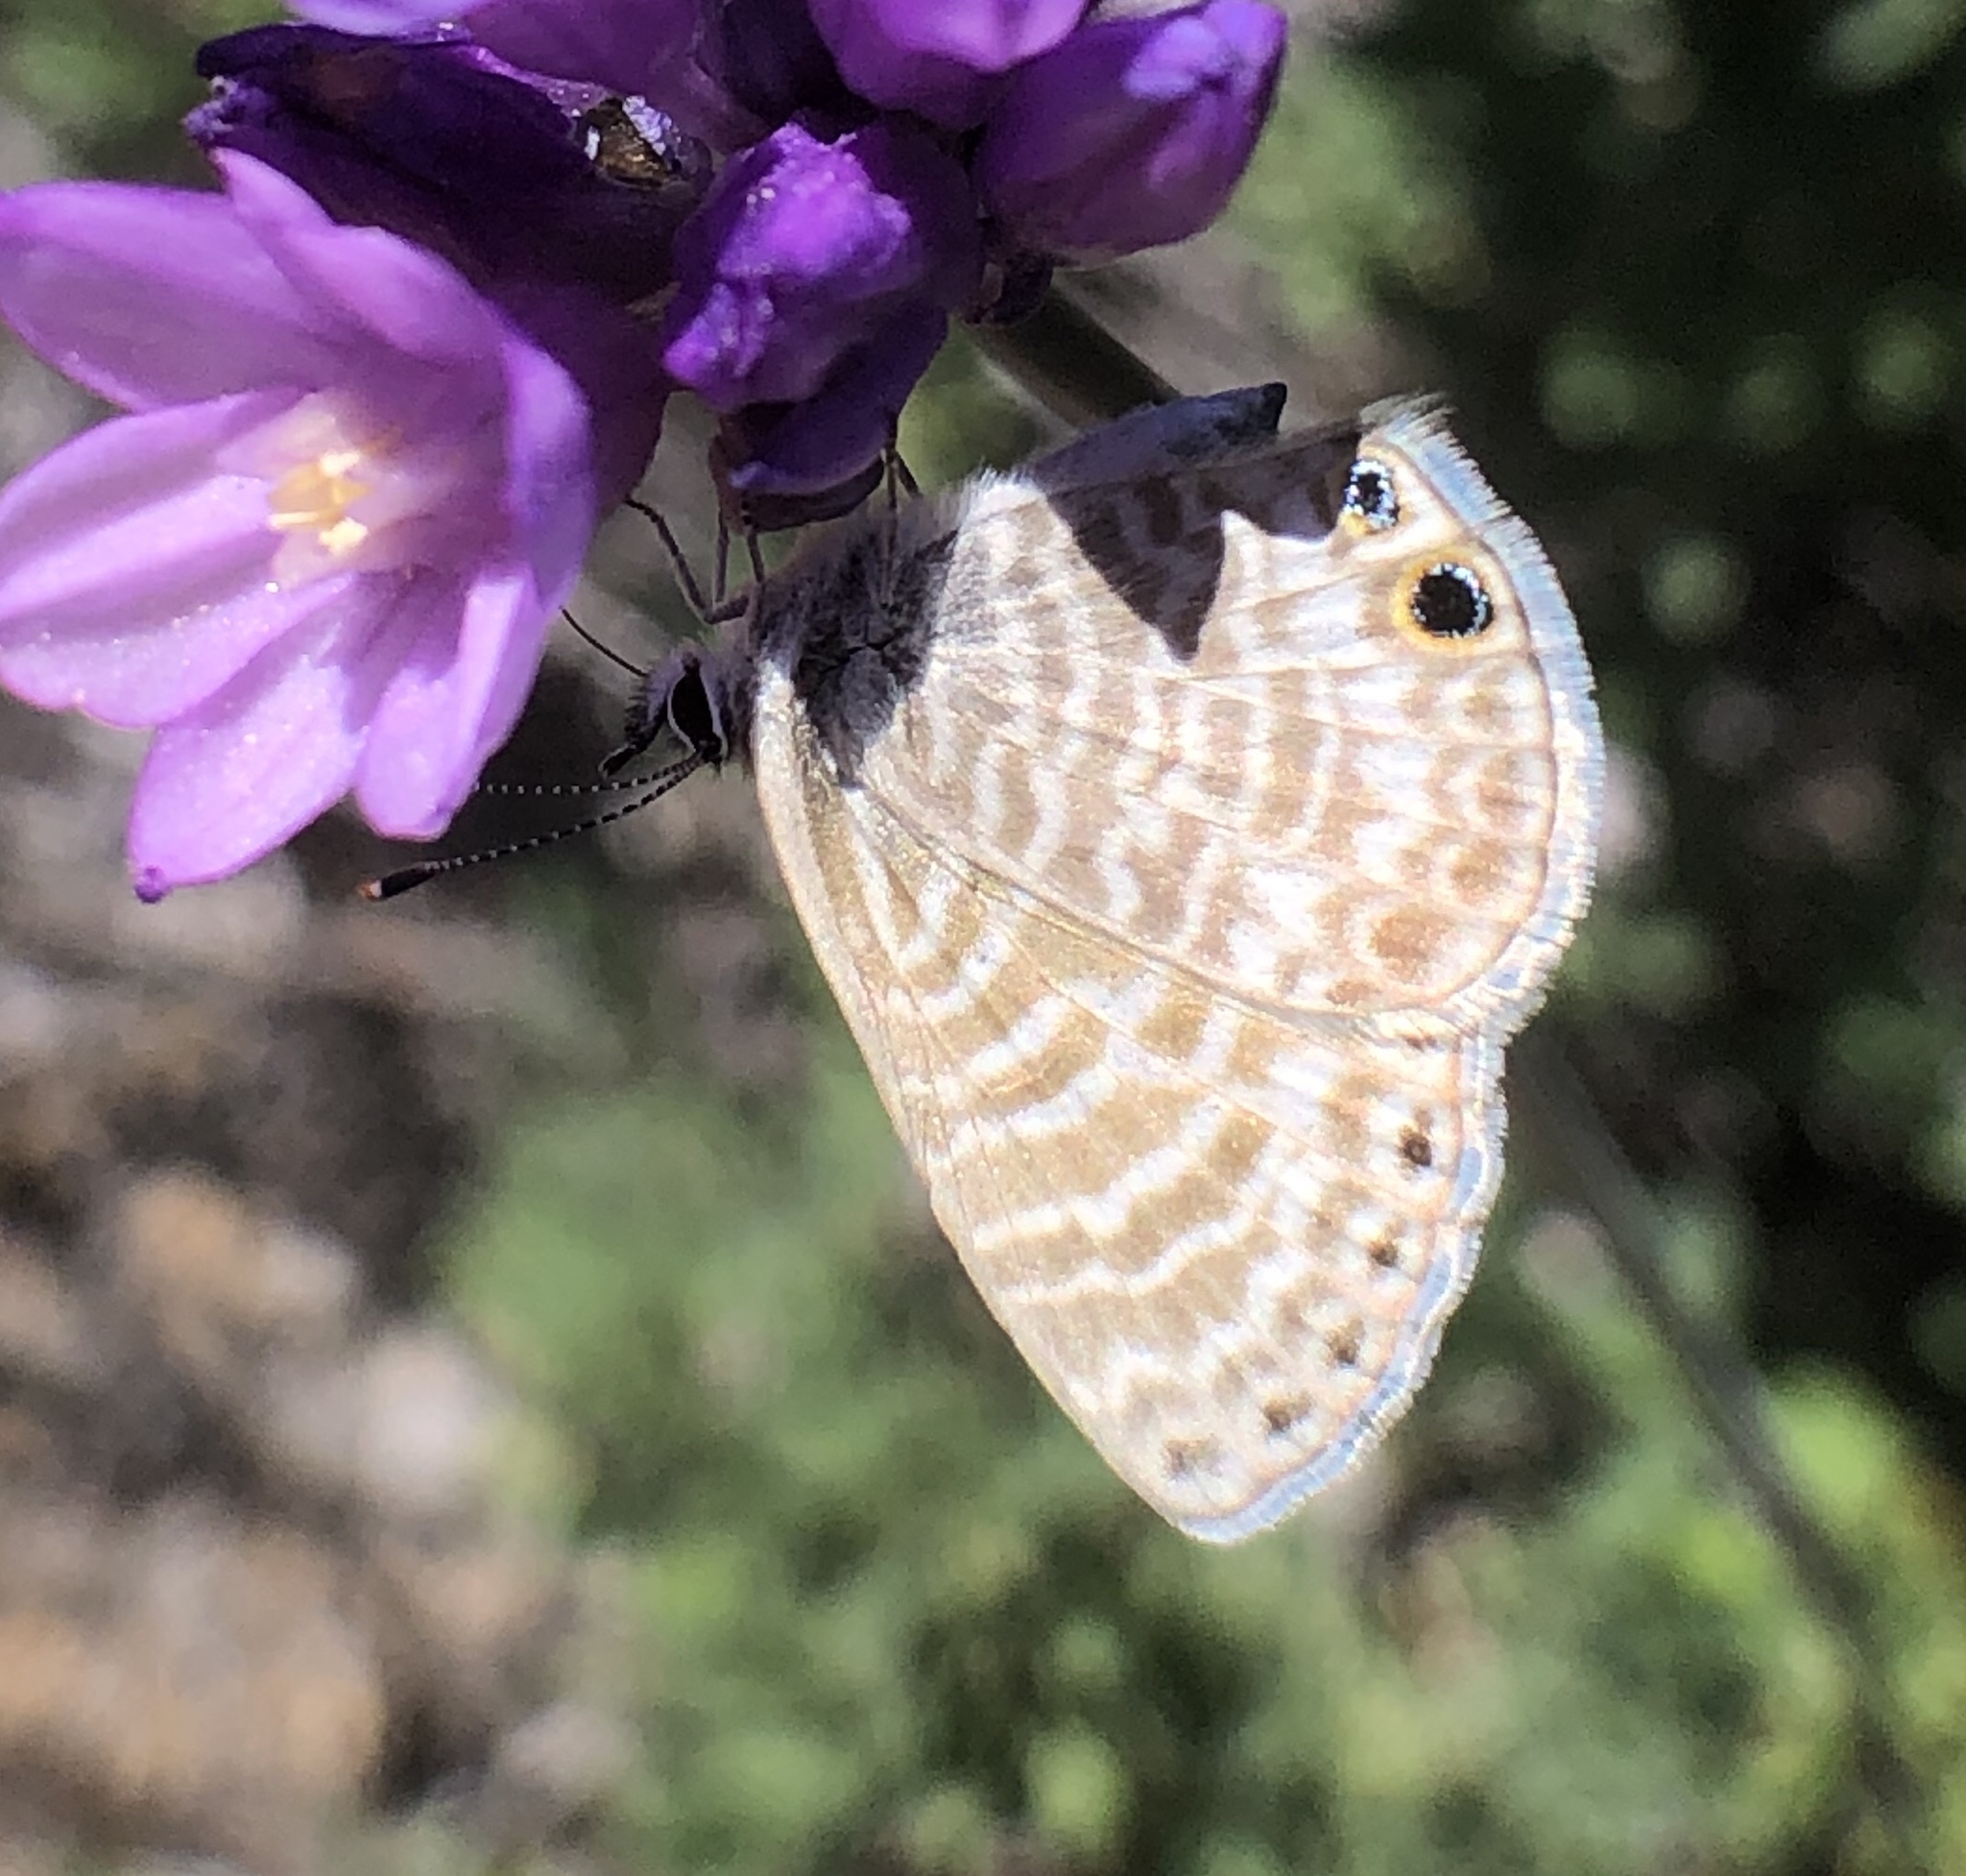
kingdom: Animalia
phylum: Arthropoda
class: Insecta
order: Lepidoptera
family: Lycaenidae
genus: Leptotes
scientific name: Leptotes marina
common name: Marine blue
